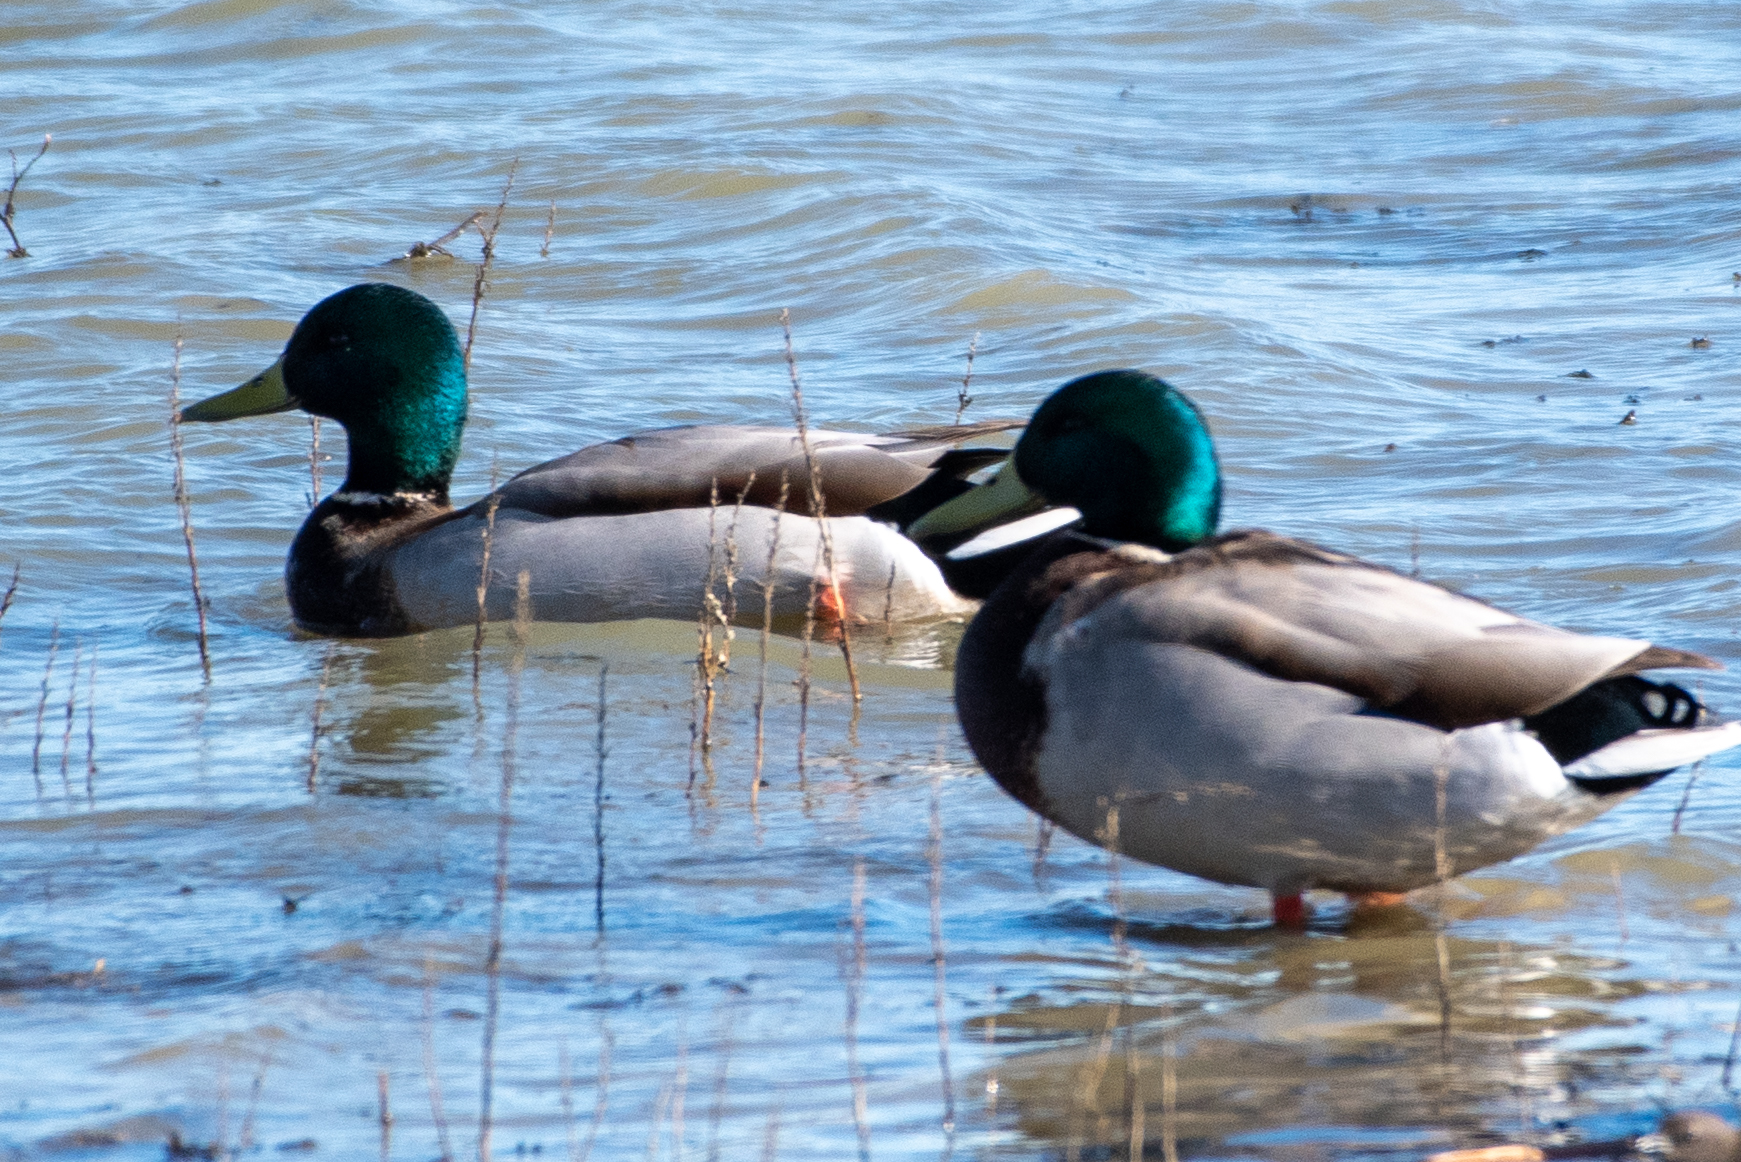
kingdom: Animalia
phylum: Chordata
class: Aves
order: Anseriformes
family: Anatidae
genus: Anas
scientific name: Anas platyrhynchos
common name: Mallard
